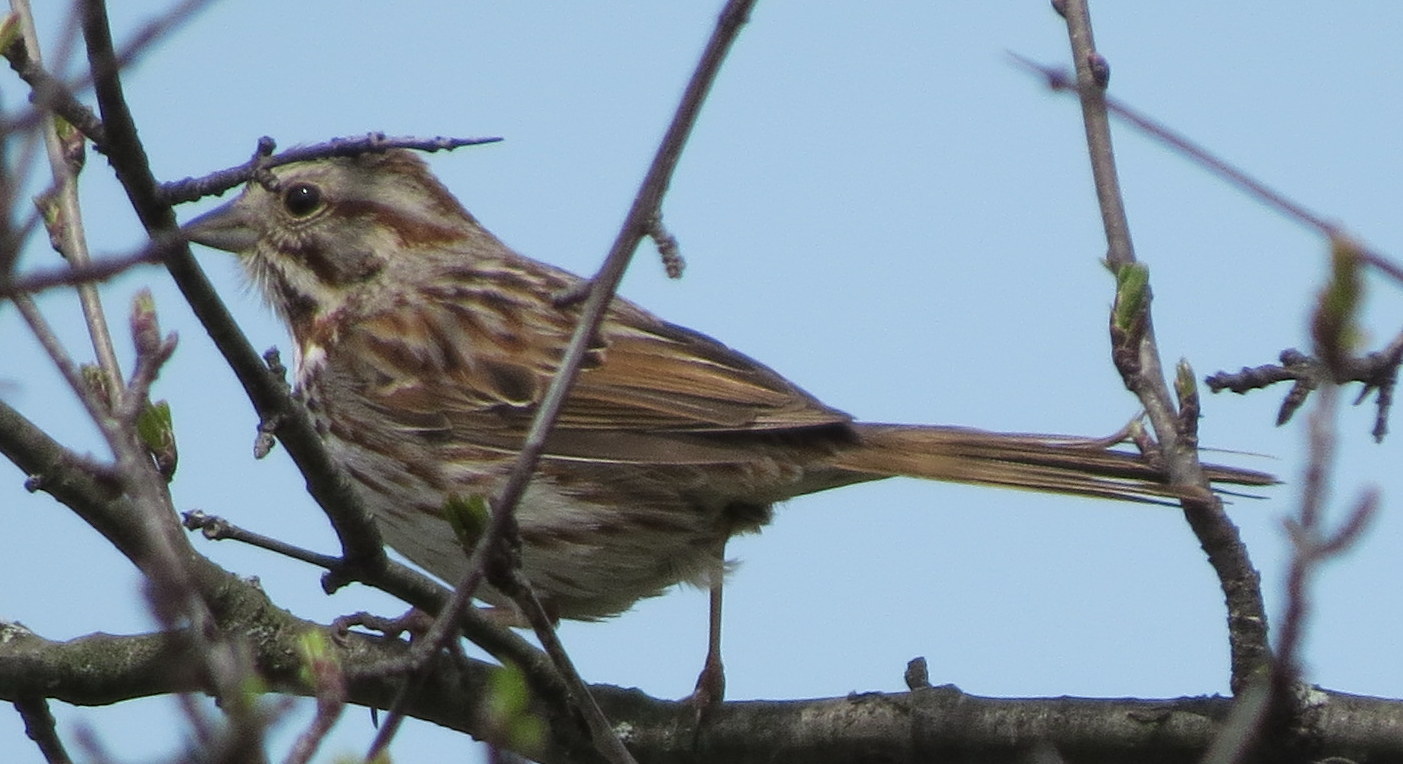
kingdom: Animalia
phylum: Chordata
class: Aves
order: Passeriformes
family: Passerellidae
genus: Melospiza
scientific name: Melospiza melodia
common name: Song sparrow
